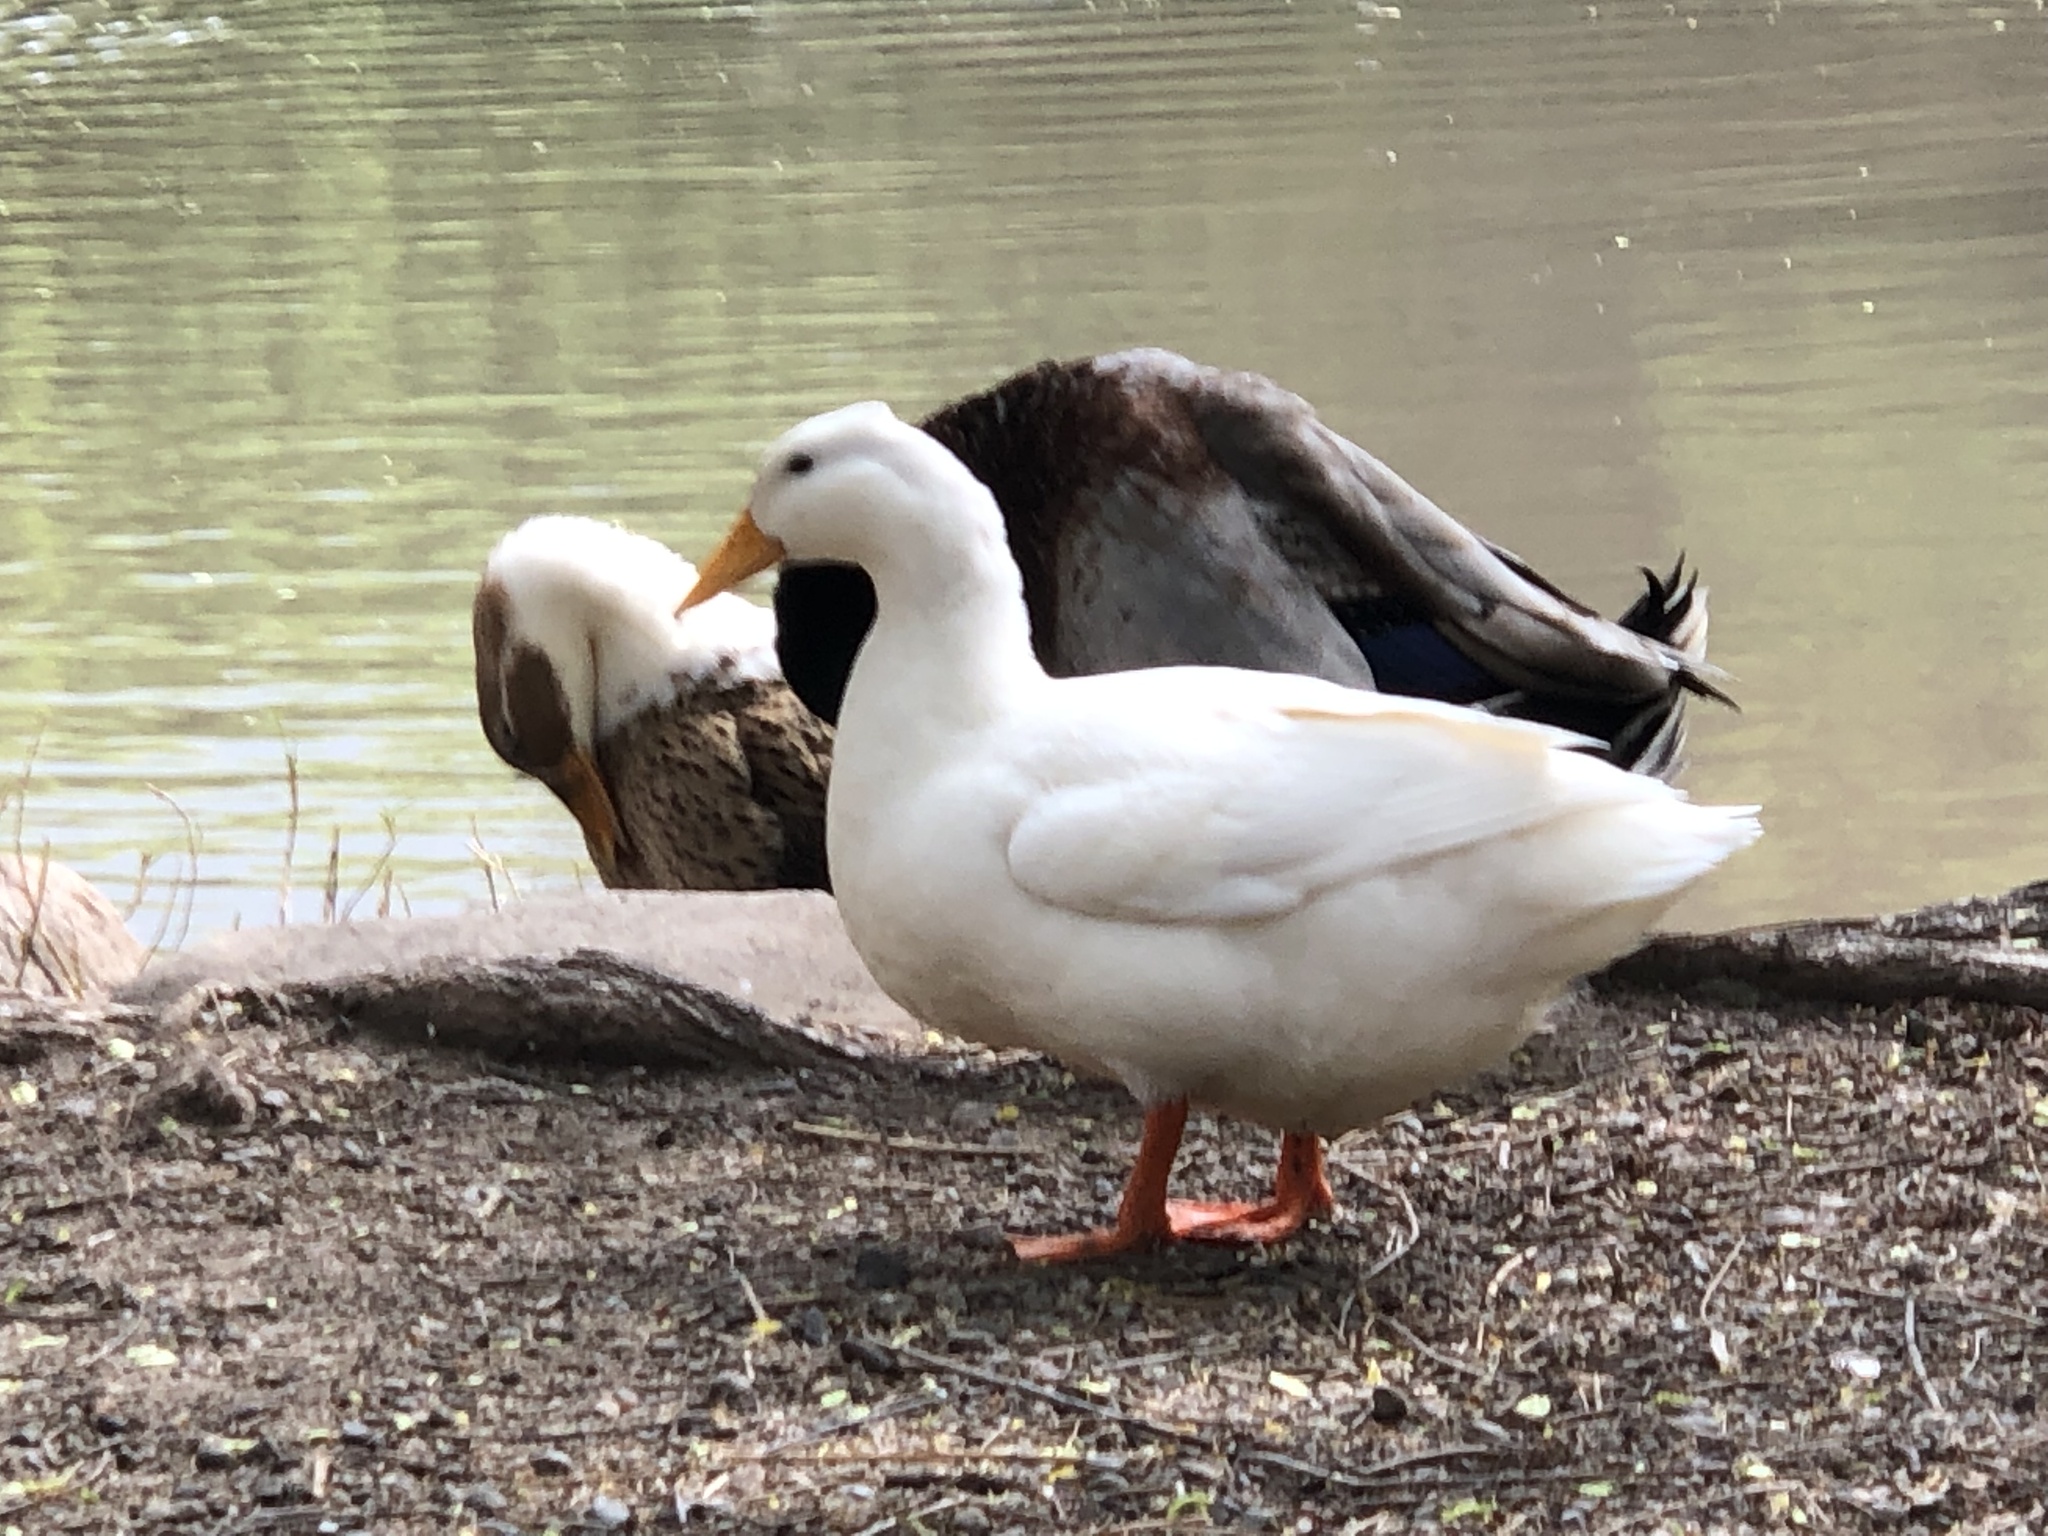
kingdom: Animalia
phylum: Chordata
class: Aves
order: Anseriformes
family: Anatidae
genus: Anas
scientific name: Anas platyrhynchos
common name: Mallard
